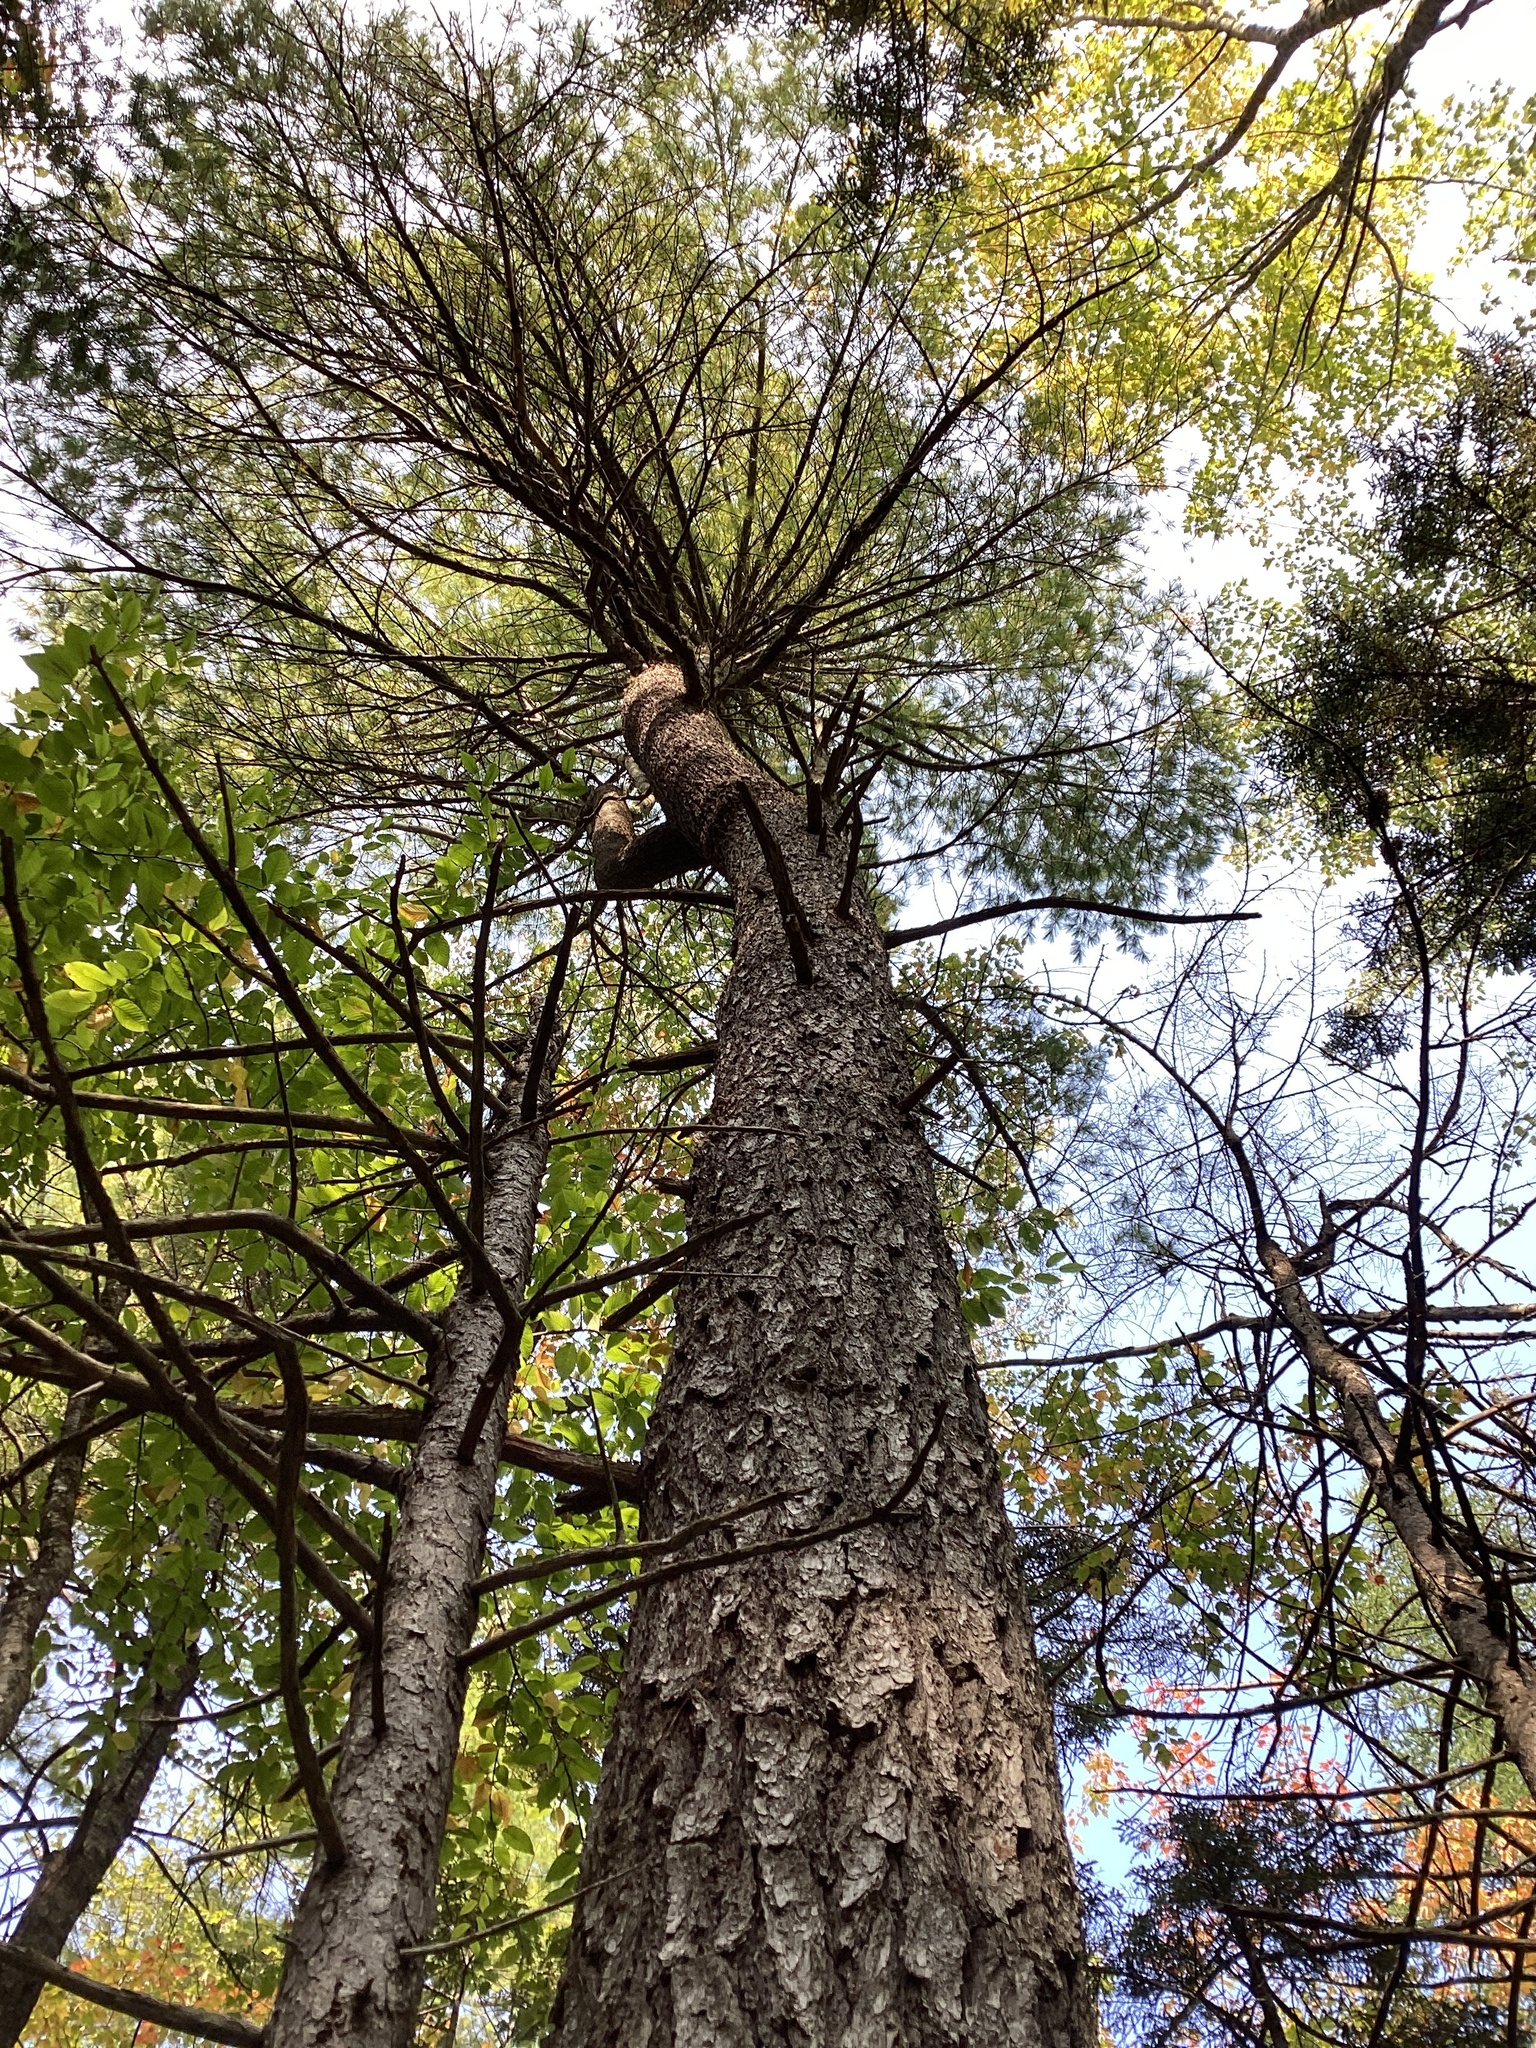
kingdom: Plantae
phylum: Tracheophyta
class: Pinopsida
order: Pinales
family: Pinaceae
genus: Pinus
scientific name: Pinus strobus
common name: Weymouth pine
